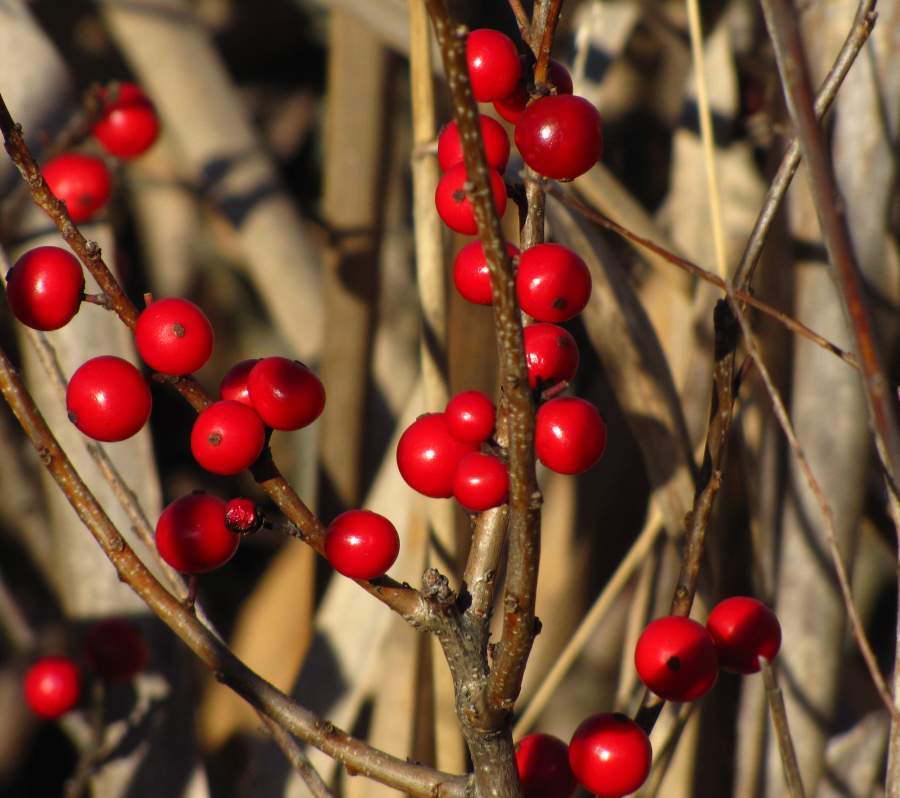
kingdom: Plantae
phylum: Tracheophyta
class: Magnoliopsida
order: Aquifoliales
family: Aquifoliaceae
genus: Ilex
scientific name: Ilex verticillata
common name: Virginia winterberry
